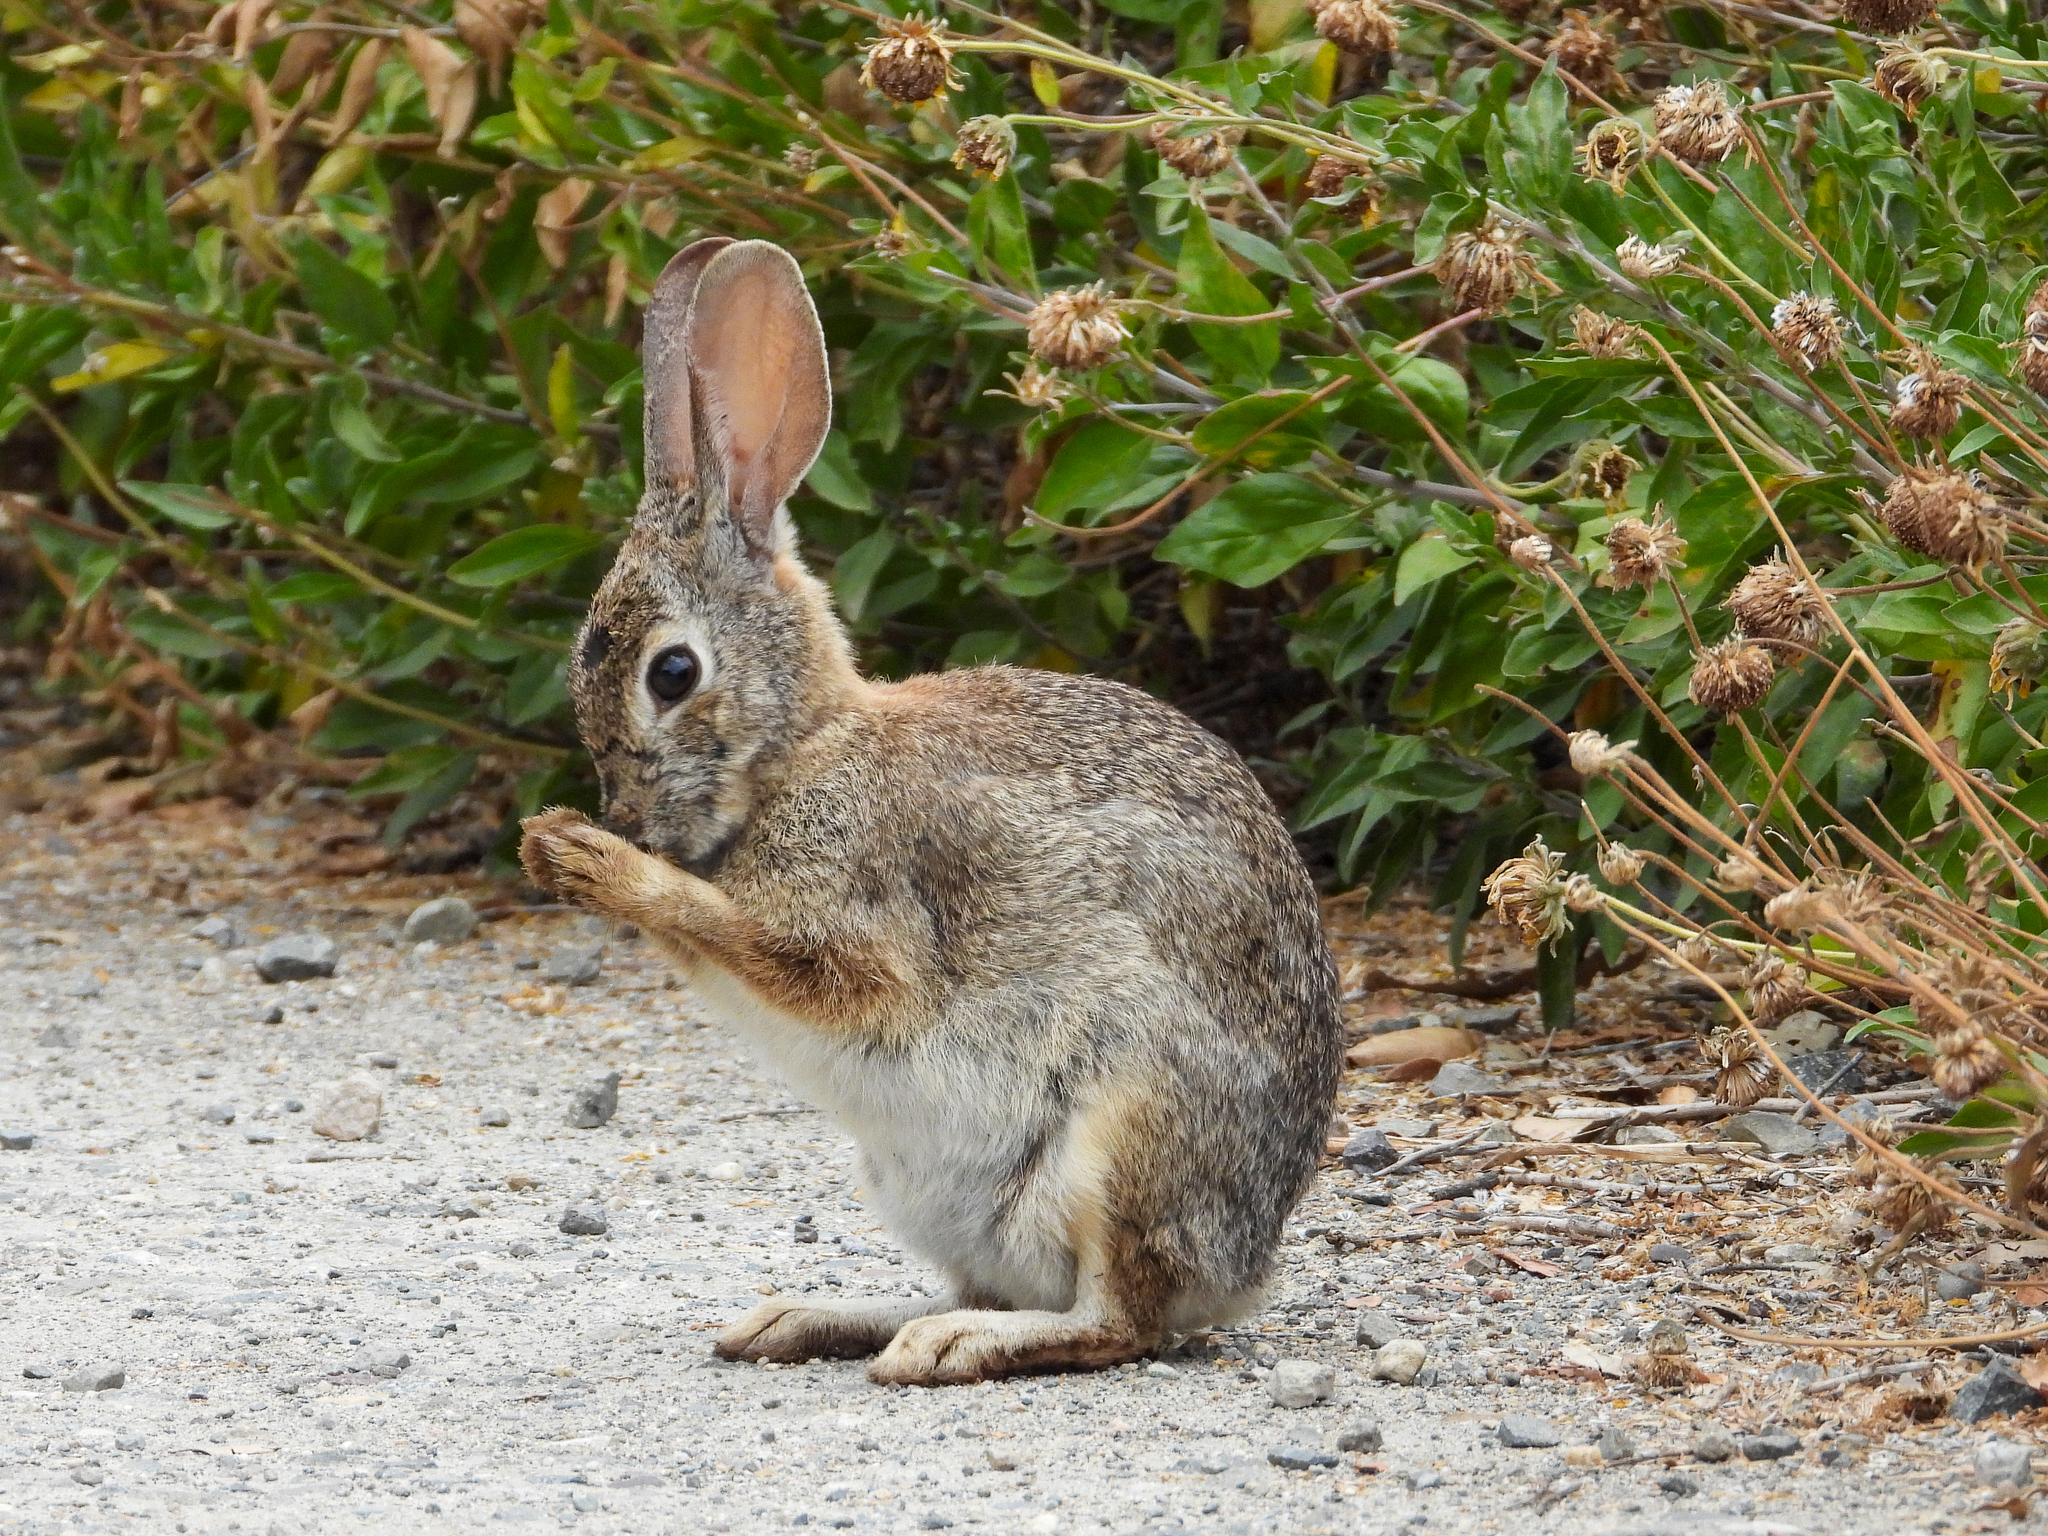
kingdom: Animalia
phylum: Chordata
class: Mammalia
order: Lagomorpha
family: Leporidae
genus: Sylvilagus
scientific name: Sylvilagus audubonii
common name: Desert cottontail
